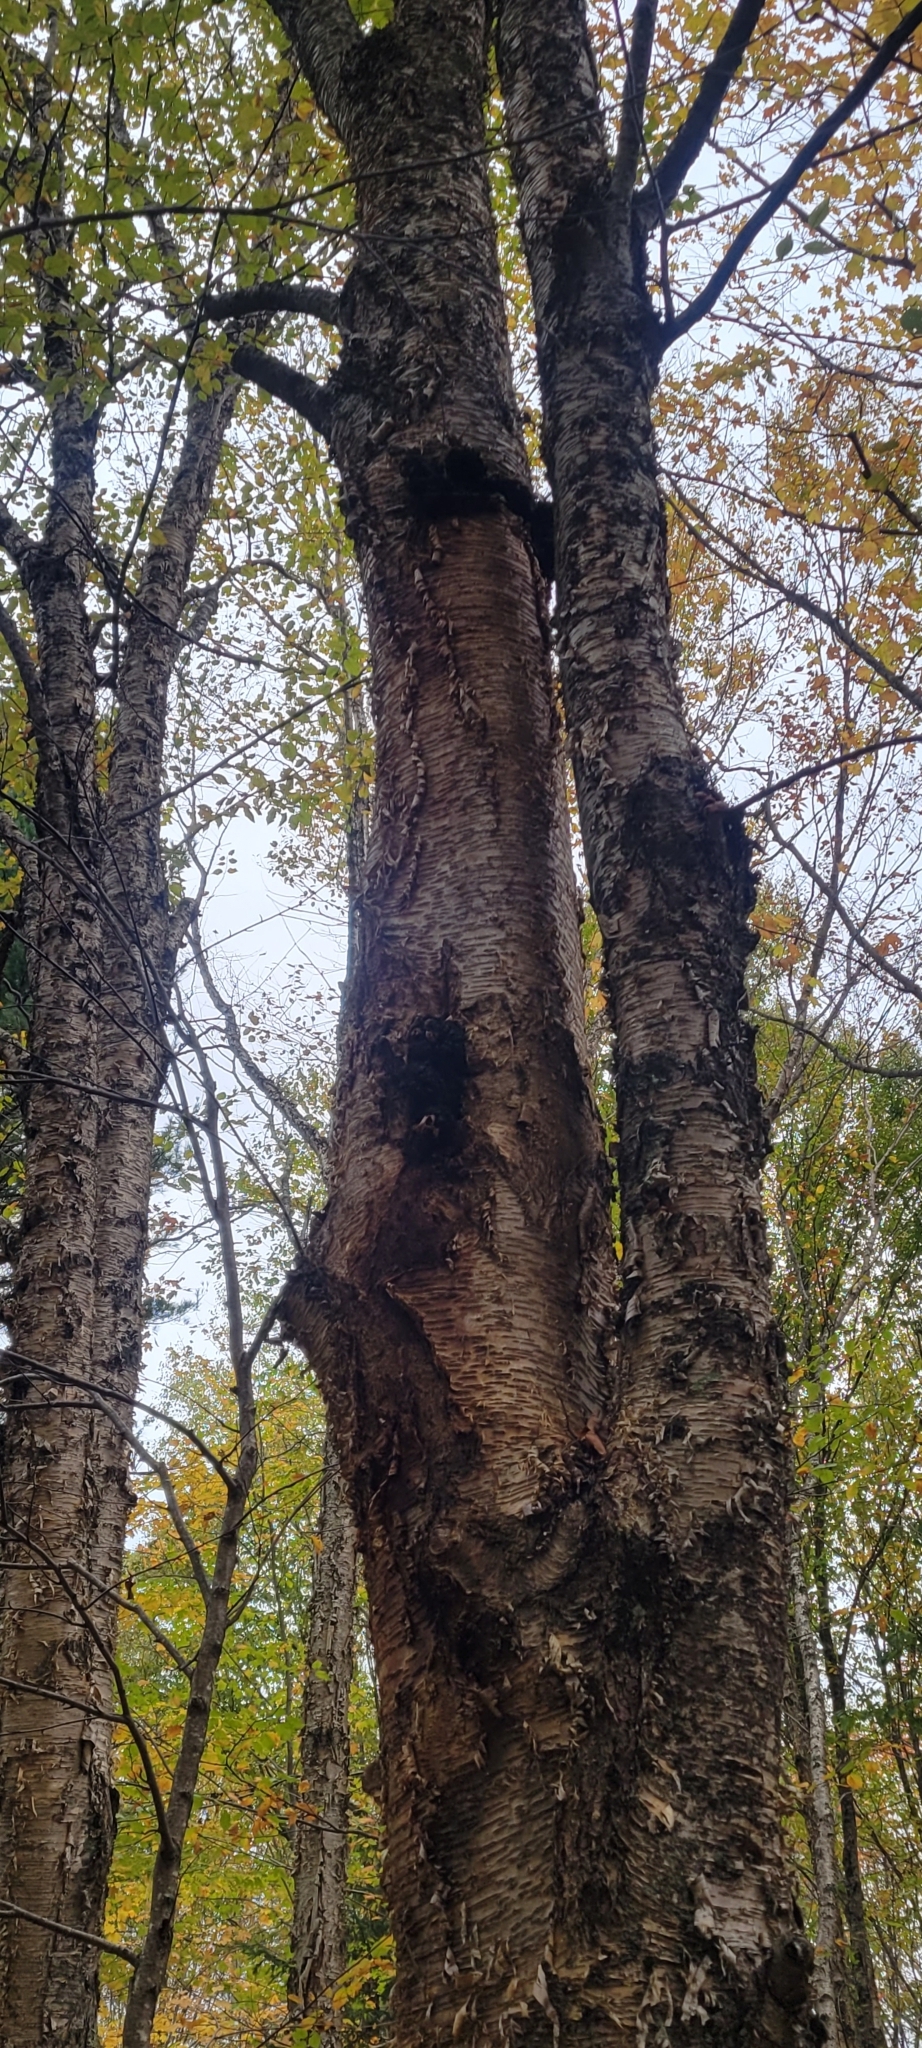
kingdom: Plantae
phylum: Tracheophyta
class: Magnoliopsida
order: Fagales
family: Betulaceae
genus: Betula
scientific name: Betula alleghaniensis
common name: Yellow birch
